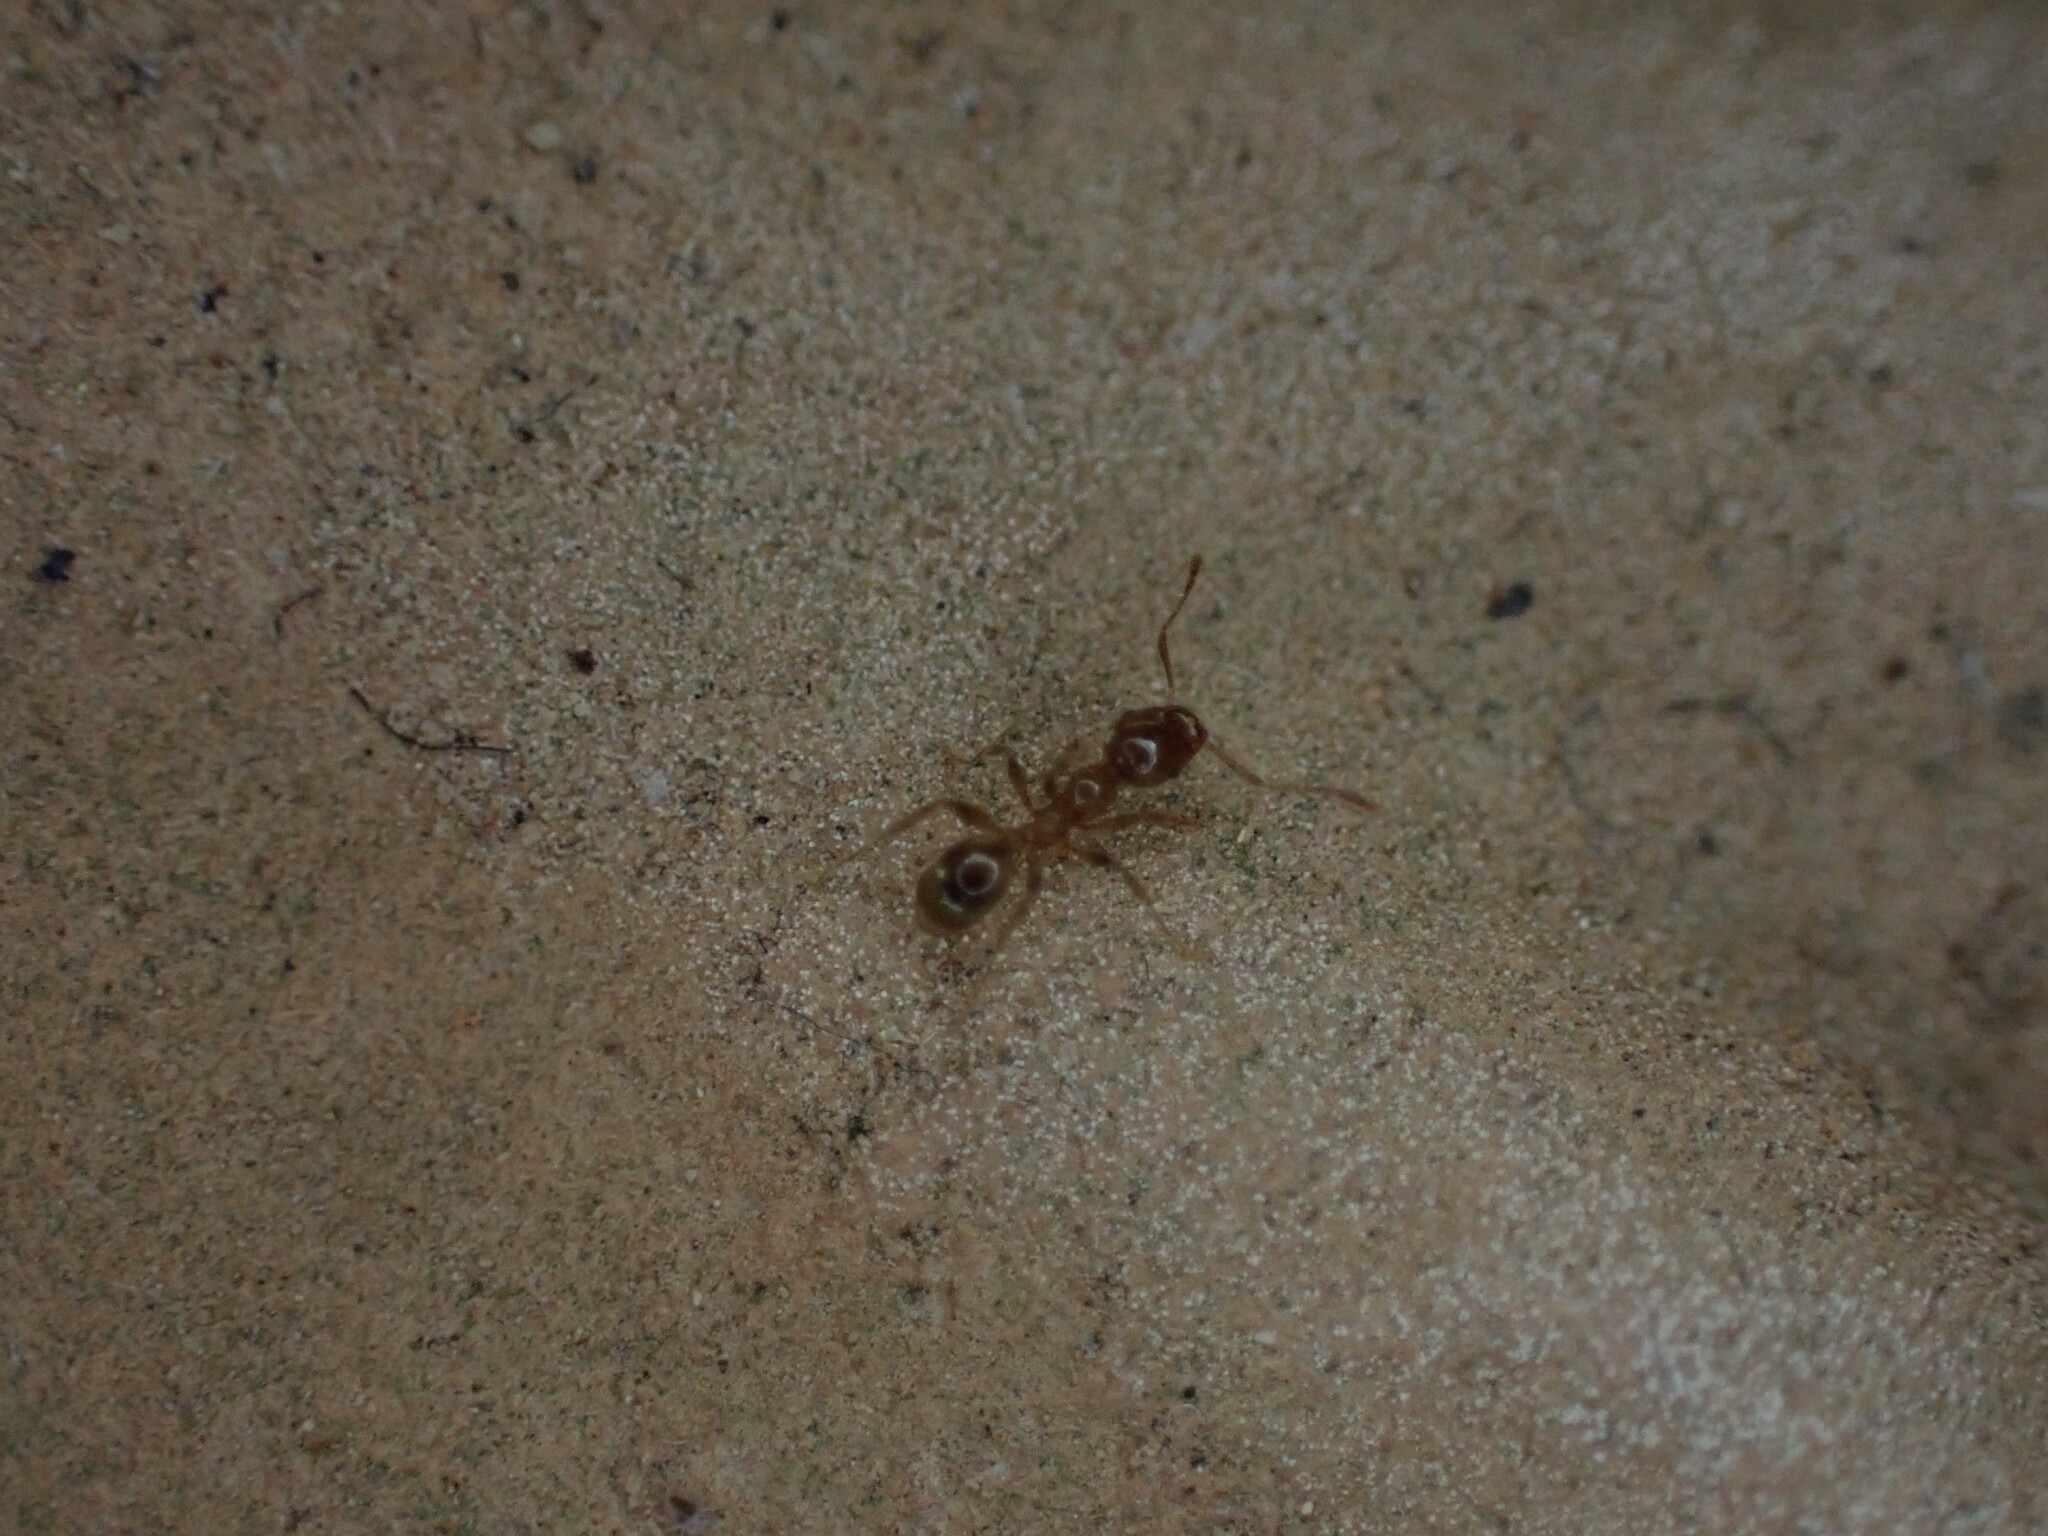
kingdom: Animalia
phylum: Arthropoda
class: Insecta
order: Hymenoptera
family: Formicidae
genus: Pheidole
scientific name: Pheidole pallidula
